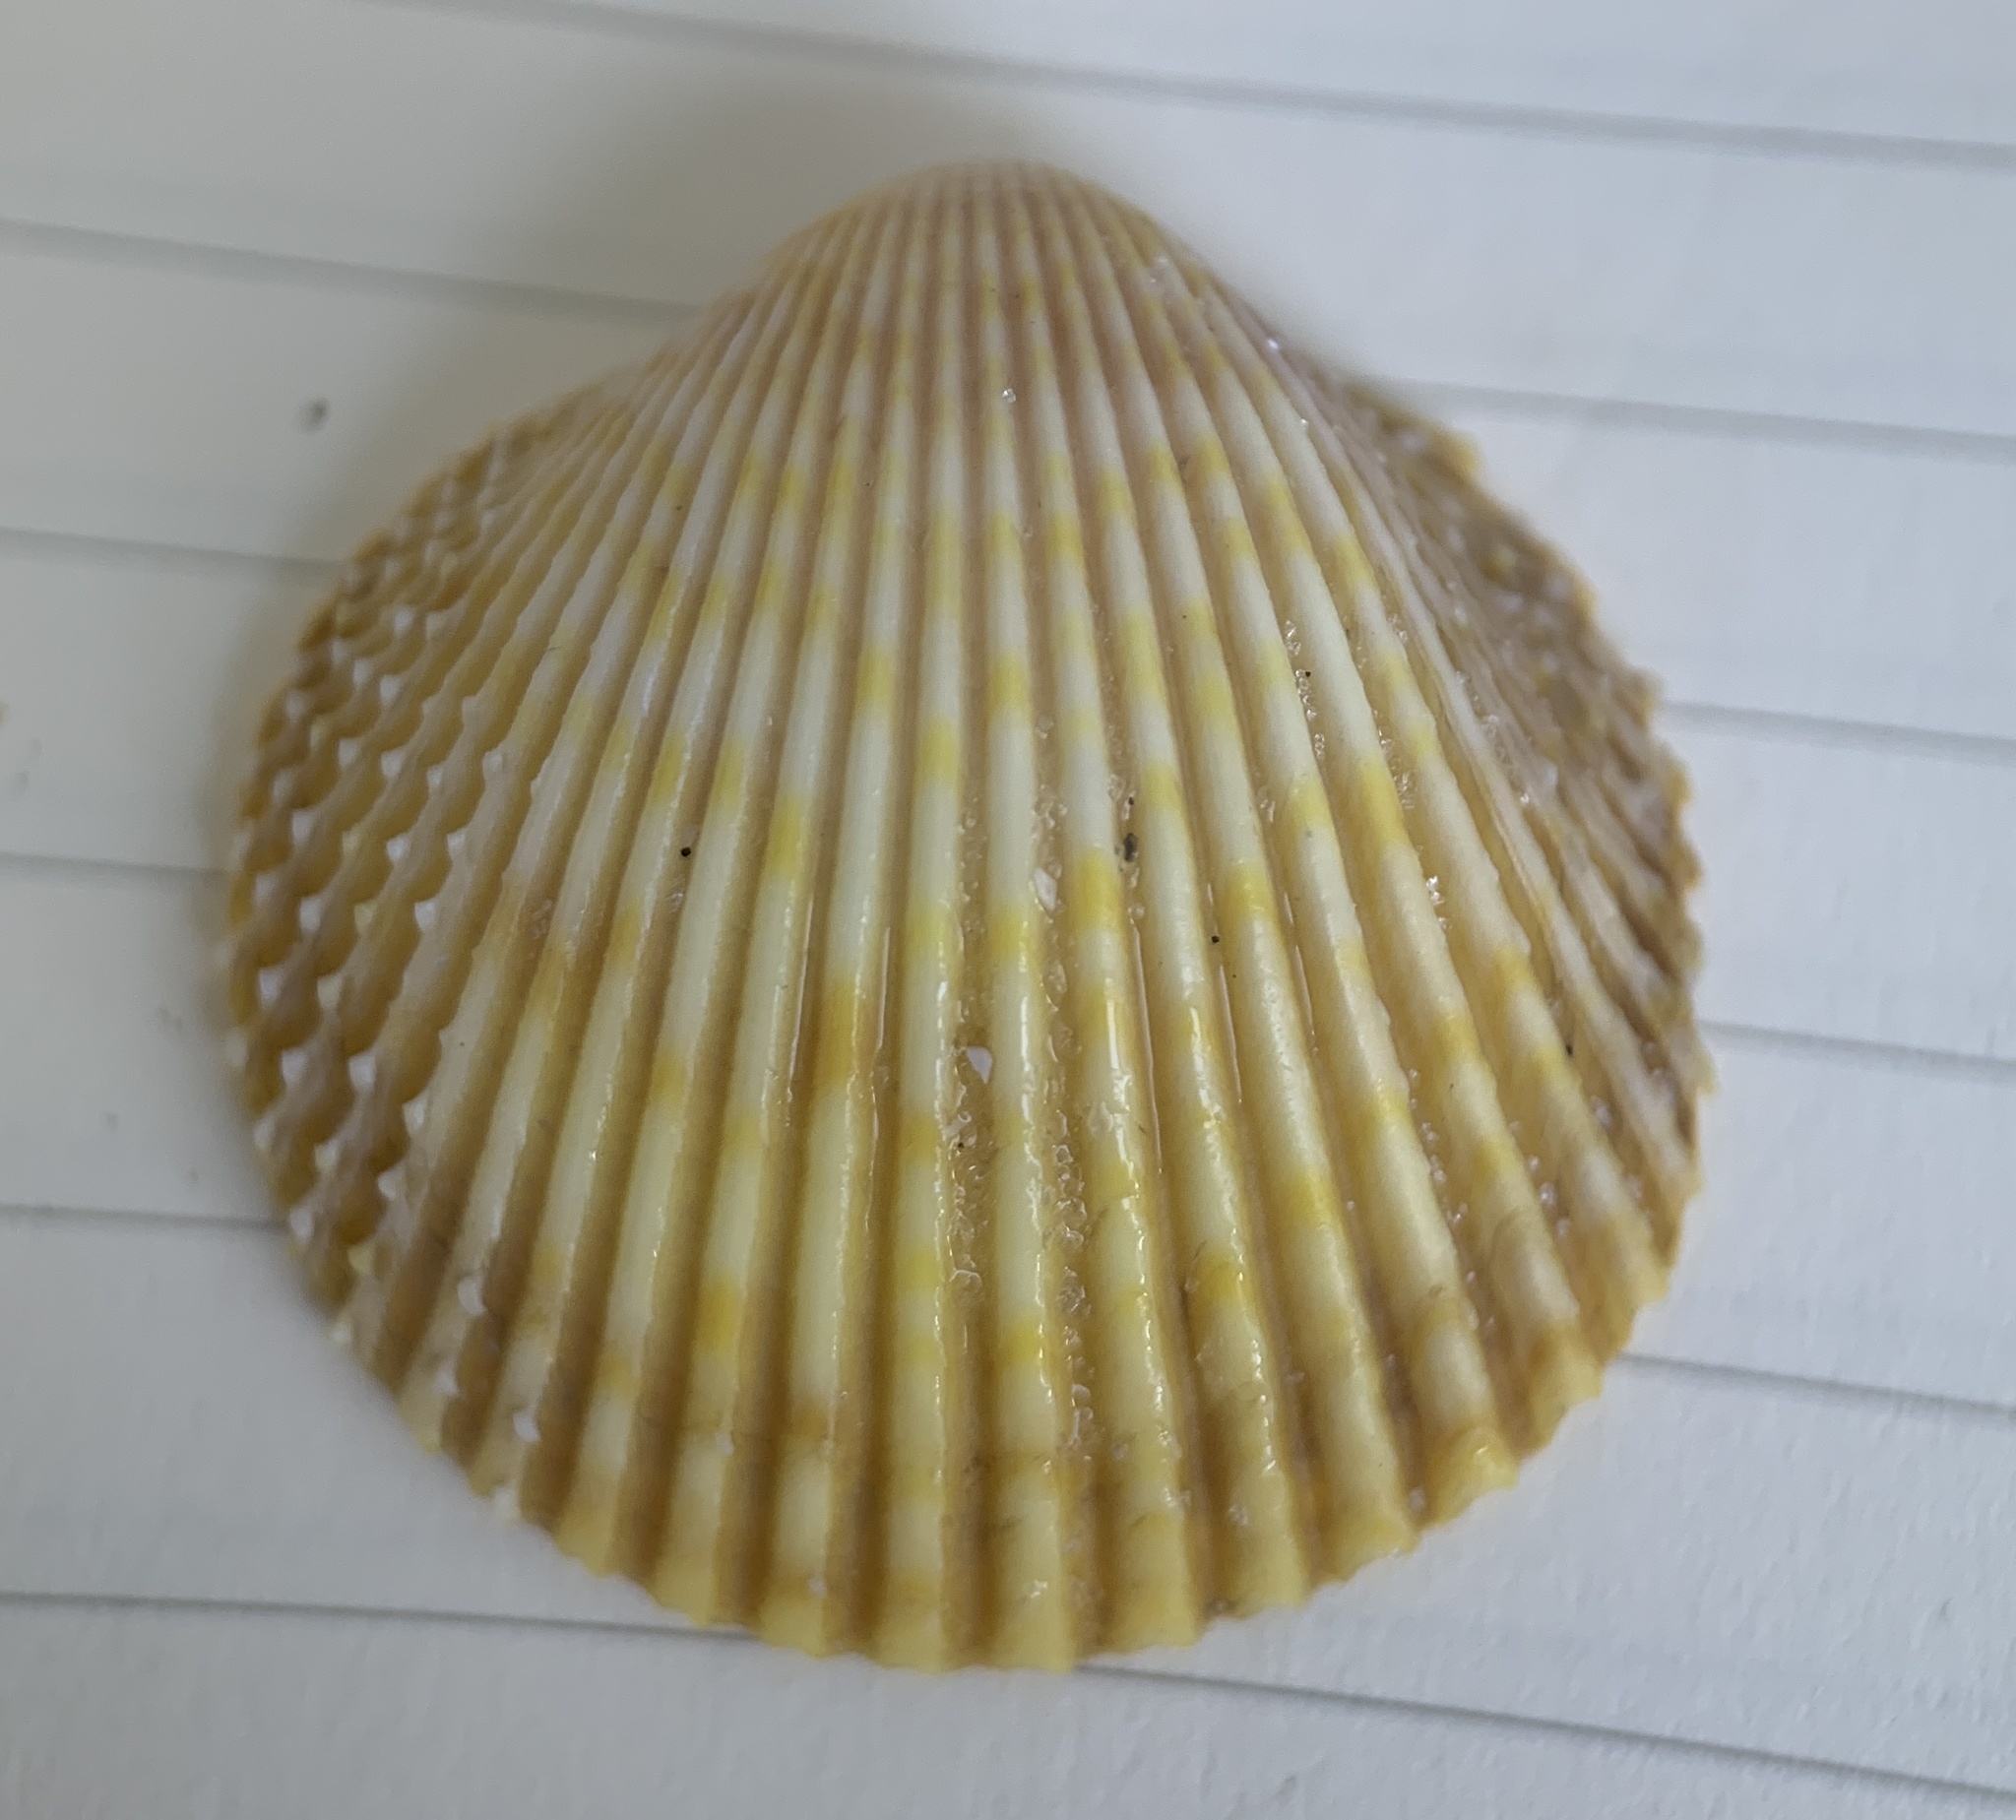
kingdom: Animalia
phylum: Mollusca
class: Bivalvia
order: Cardiida
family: Cardiidae
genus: Dallocardia
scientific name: Dallocardia muricata
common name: Yellow pricklycockle
